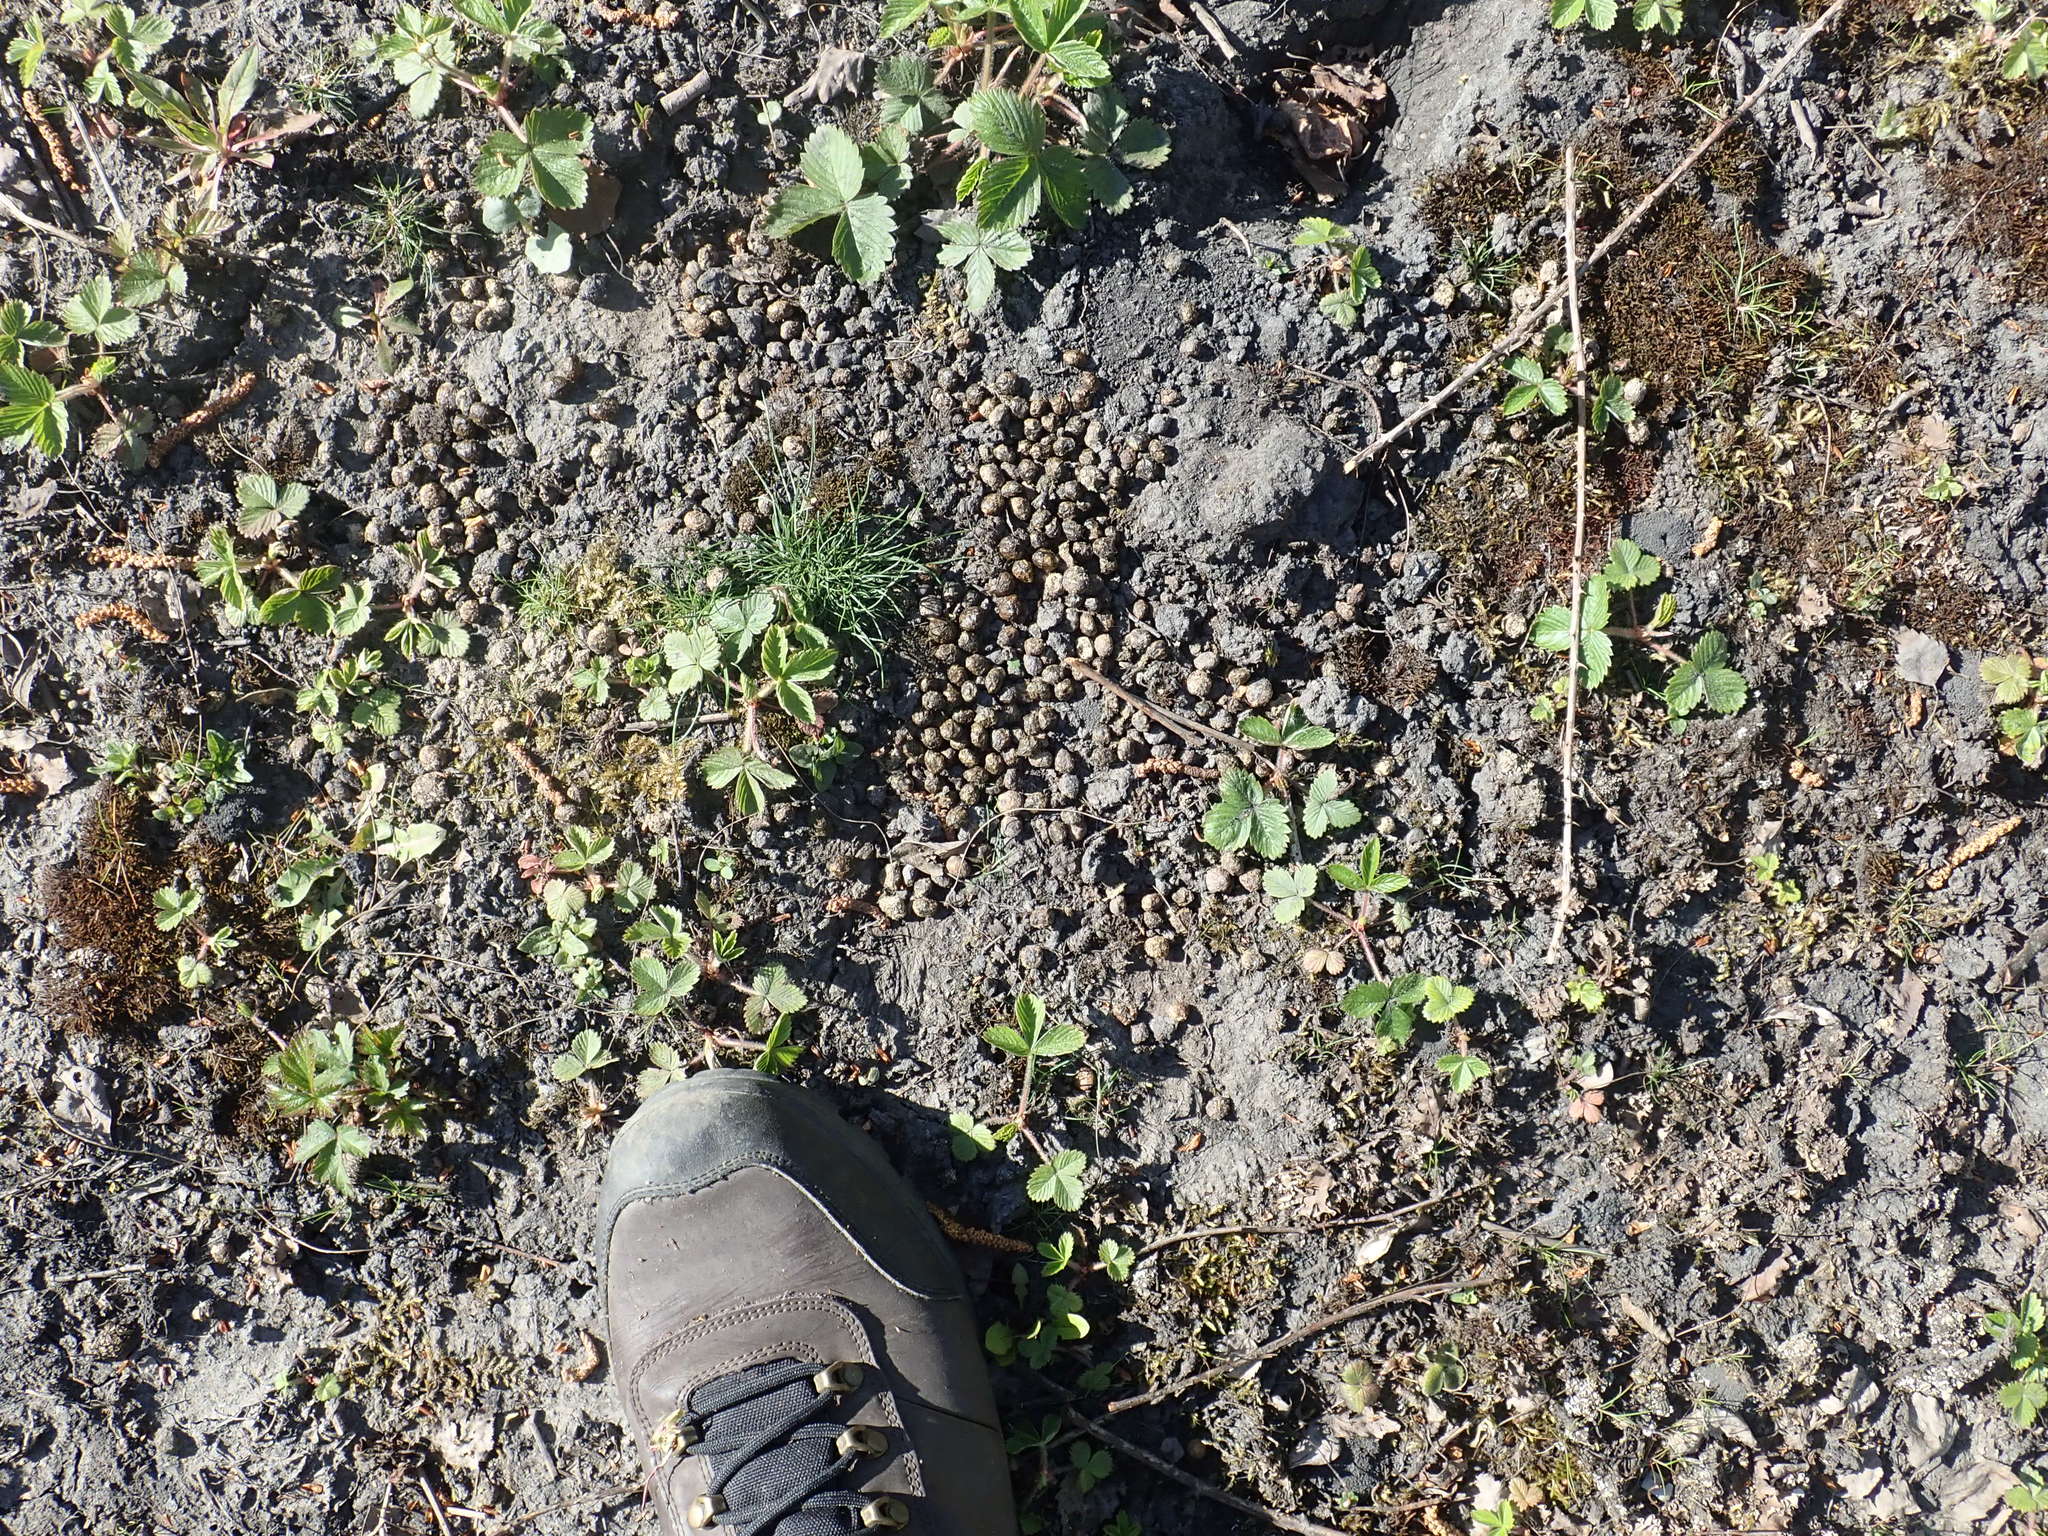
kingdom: Animalia
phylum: Chordata
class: Mammalia
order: Lagomorpha
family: Leporidae
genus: Oryctolagus
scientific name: Oryctolagus cuniculus
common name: European rabbit
